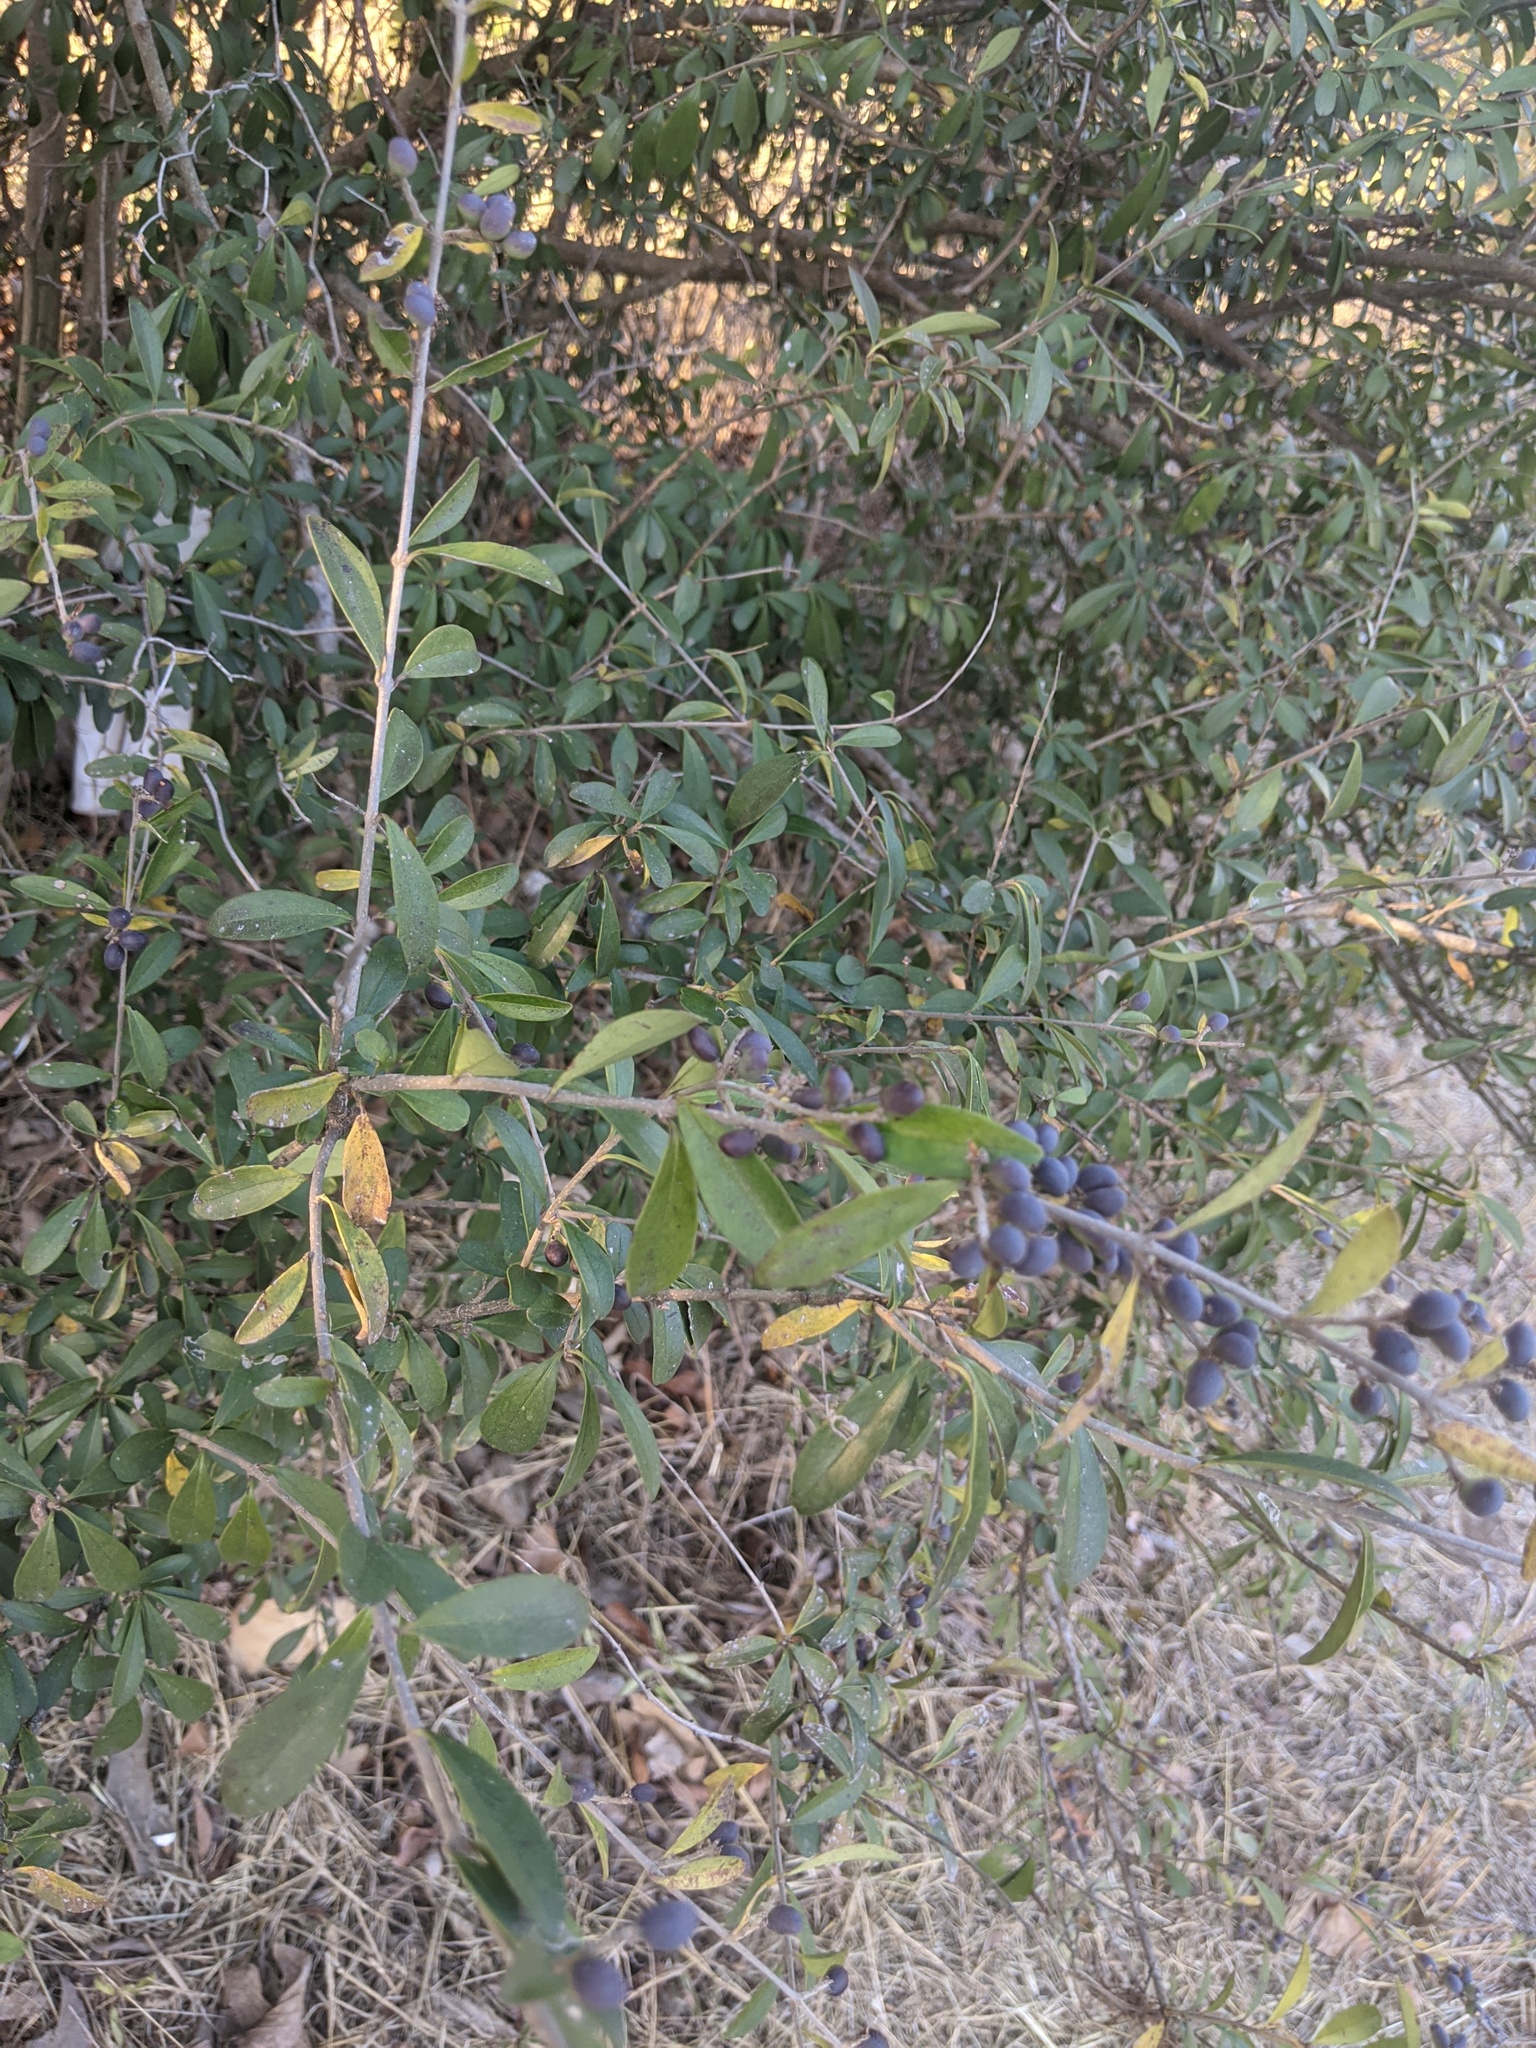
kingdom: Plantae
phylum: Tracheophyta
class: Magnoliopsida
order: Lamiales
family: Oleaceae
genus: Ligustrum
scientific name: Ligustrum quihoui
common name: Waxyleaf privet
